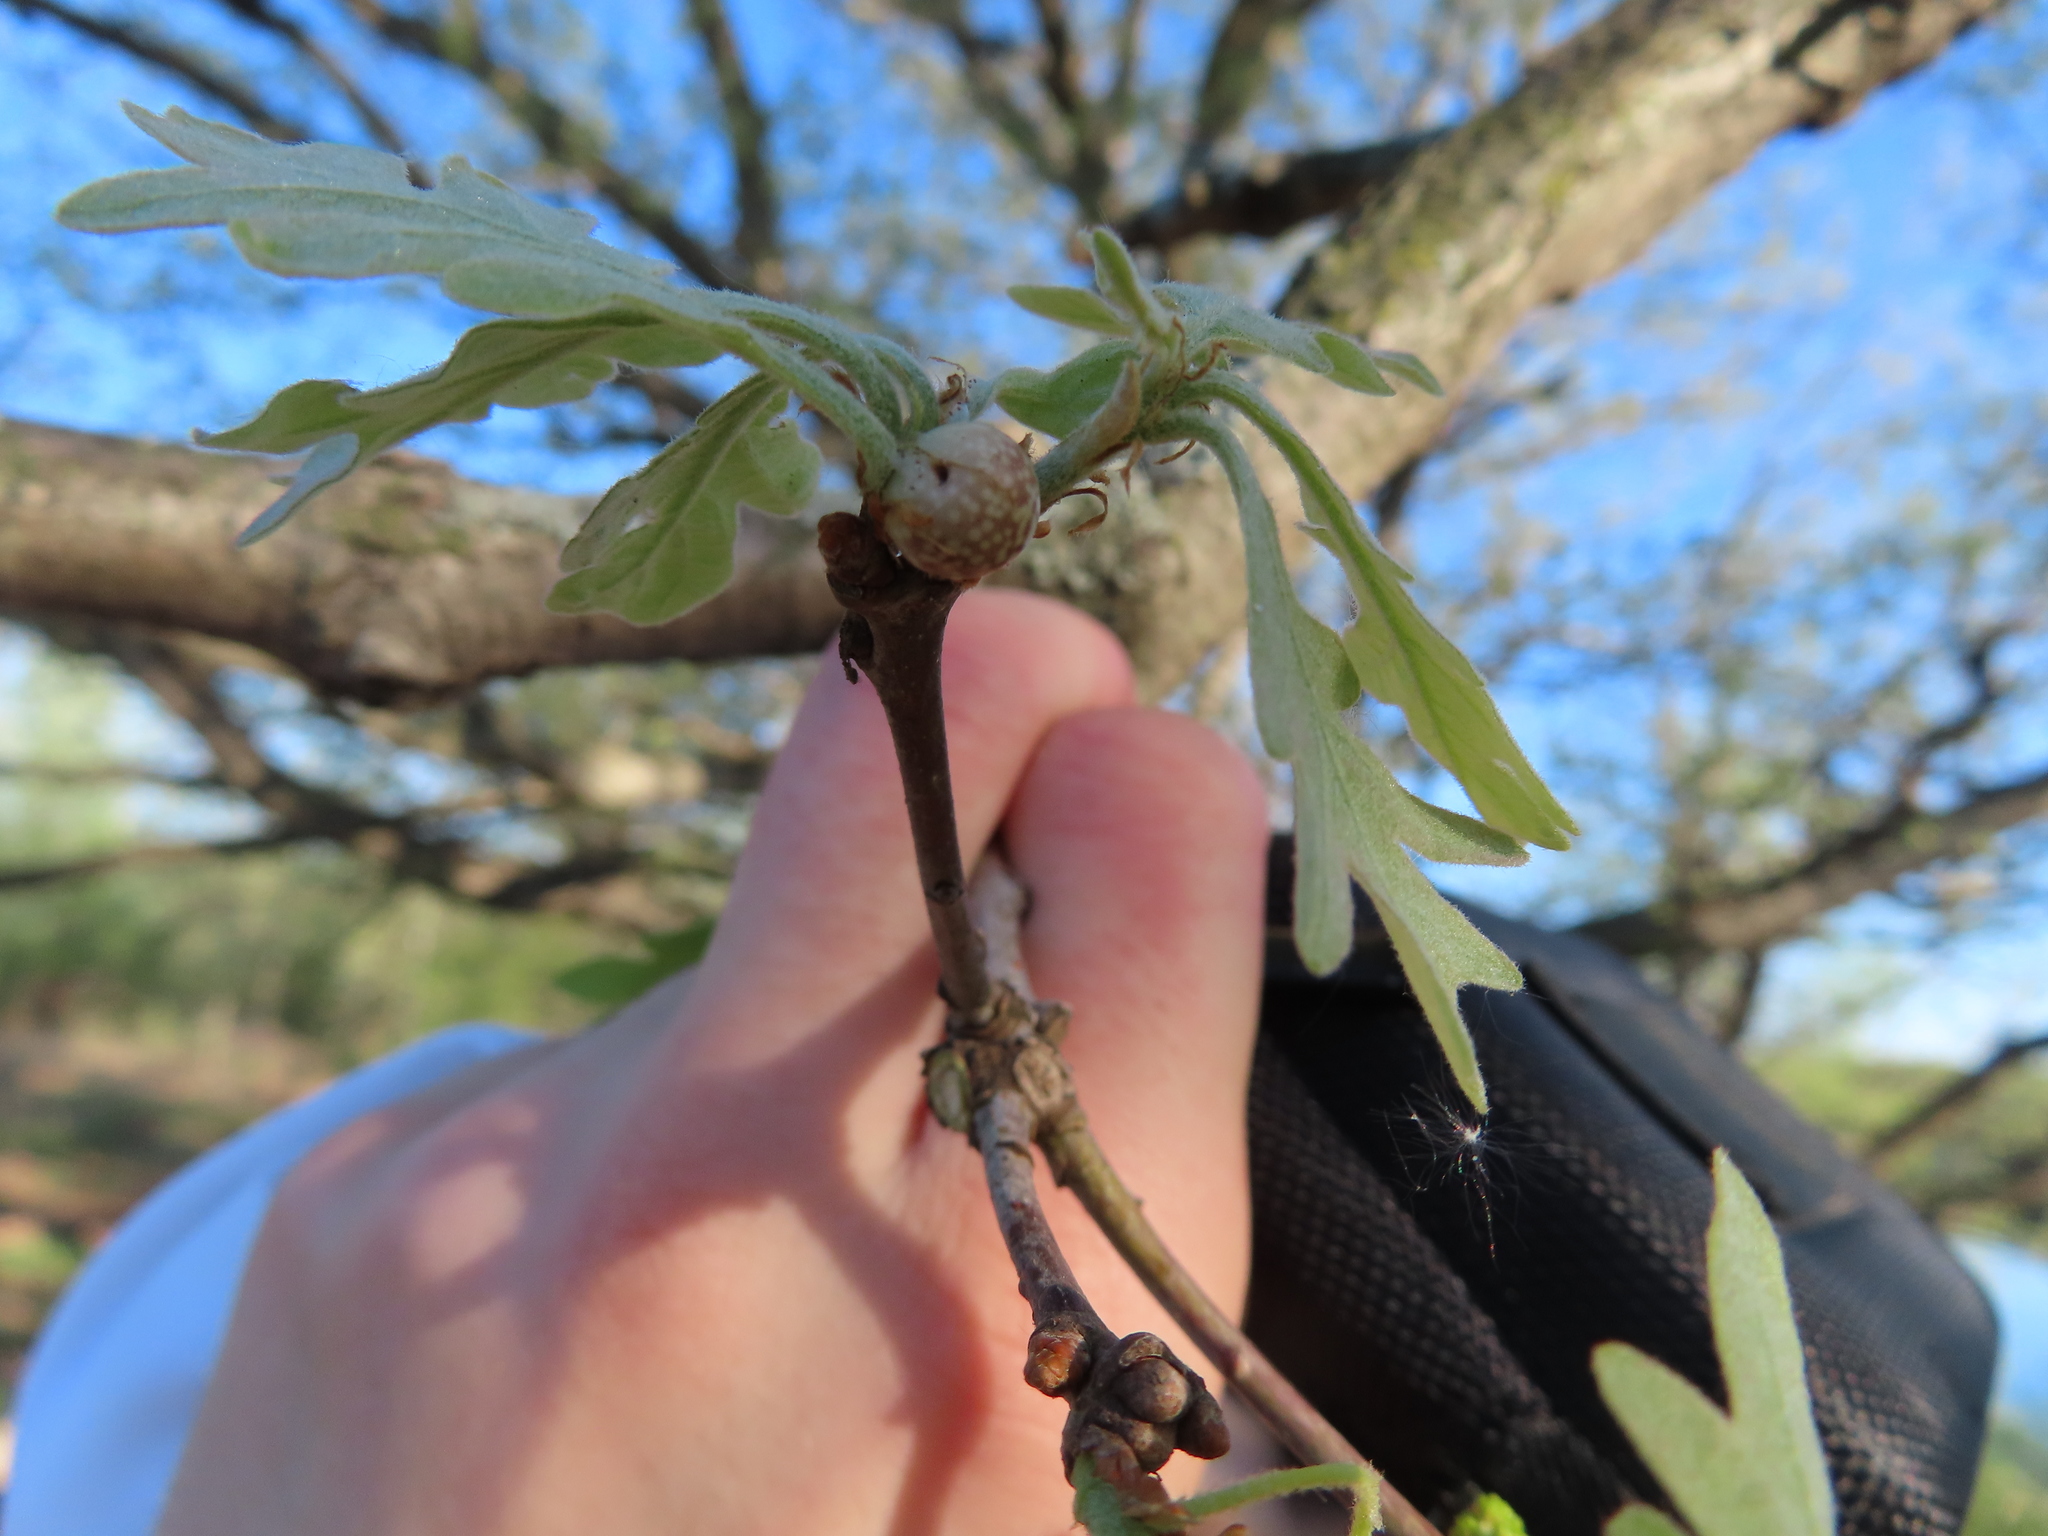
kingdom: Animalia
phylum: Arthropoda
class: Insecta
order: Hymenoptera
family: Cynipidae
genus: Andricus
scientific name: Andricus
